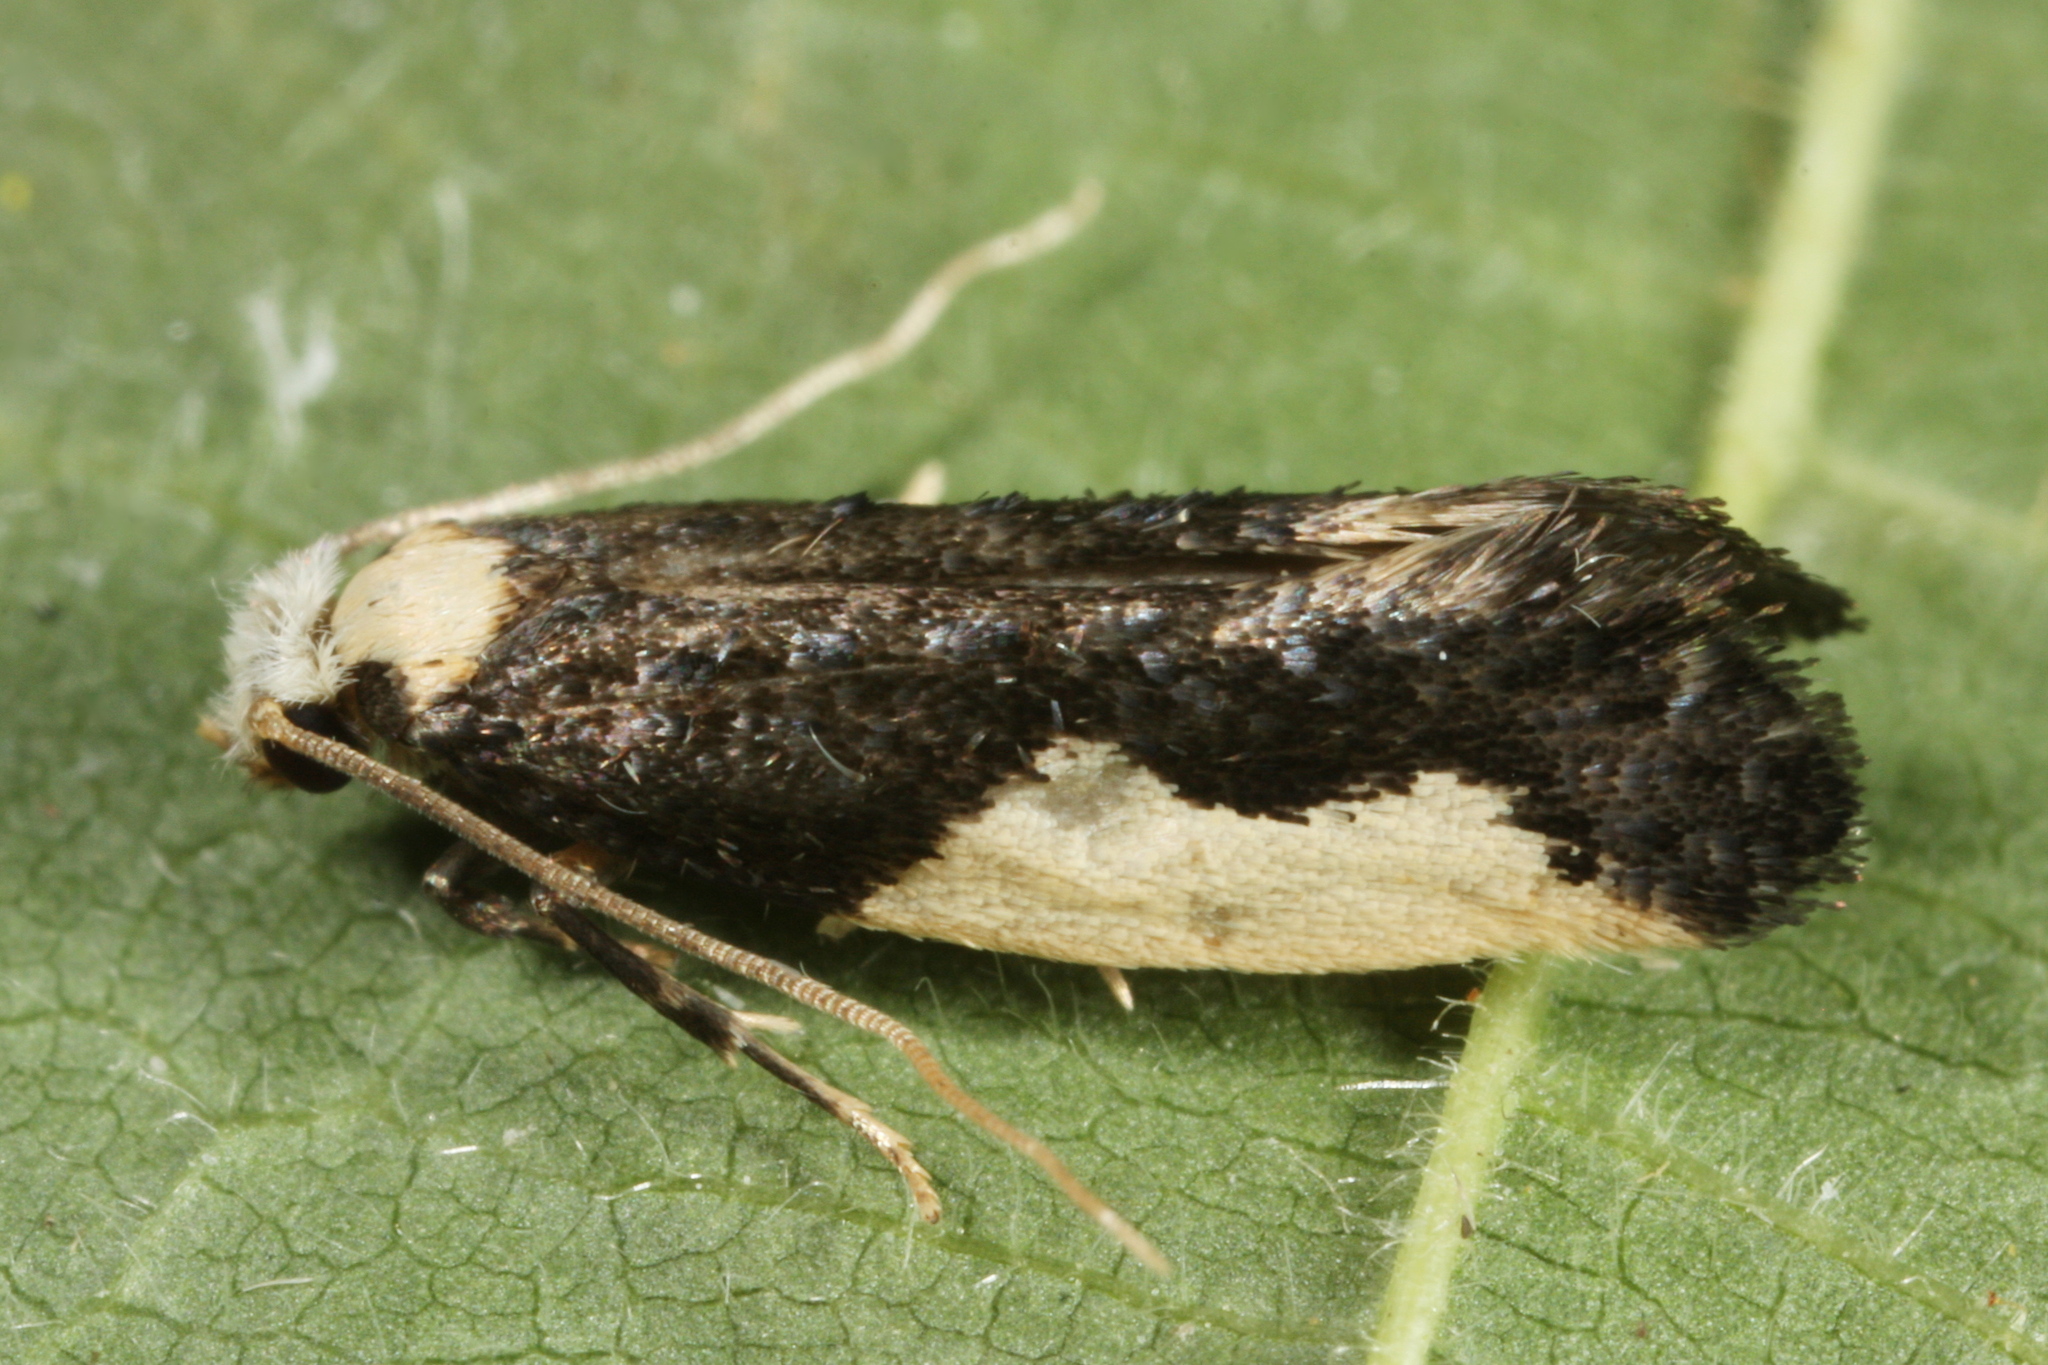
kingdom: Animalia
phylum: Arthropoda
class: Insecta
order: Lepidoptera
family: Tineidae
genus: Monopis
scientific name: Monopis monachella
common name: Moth
